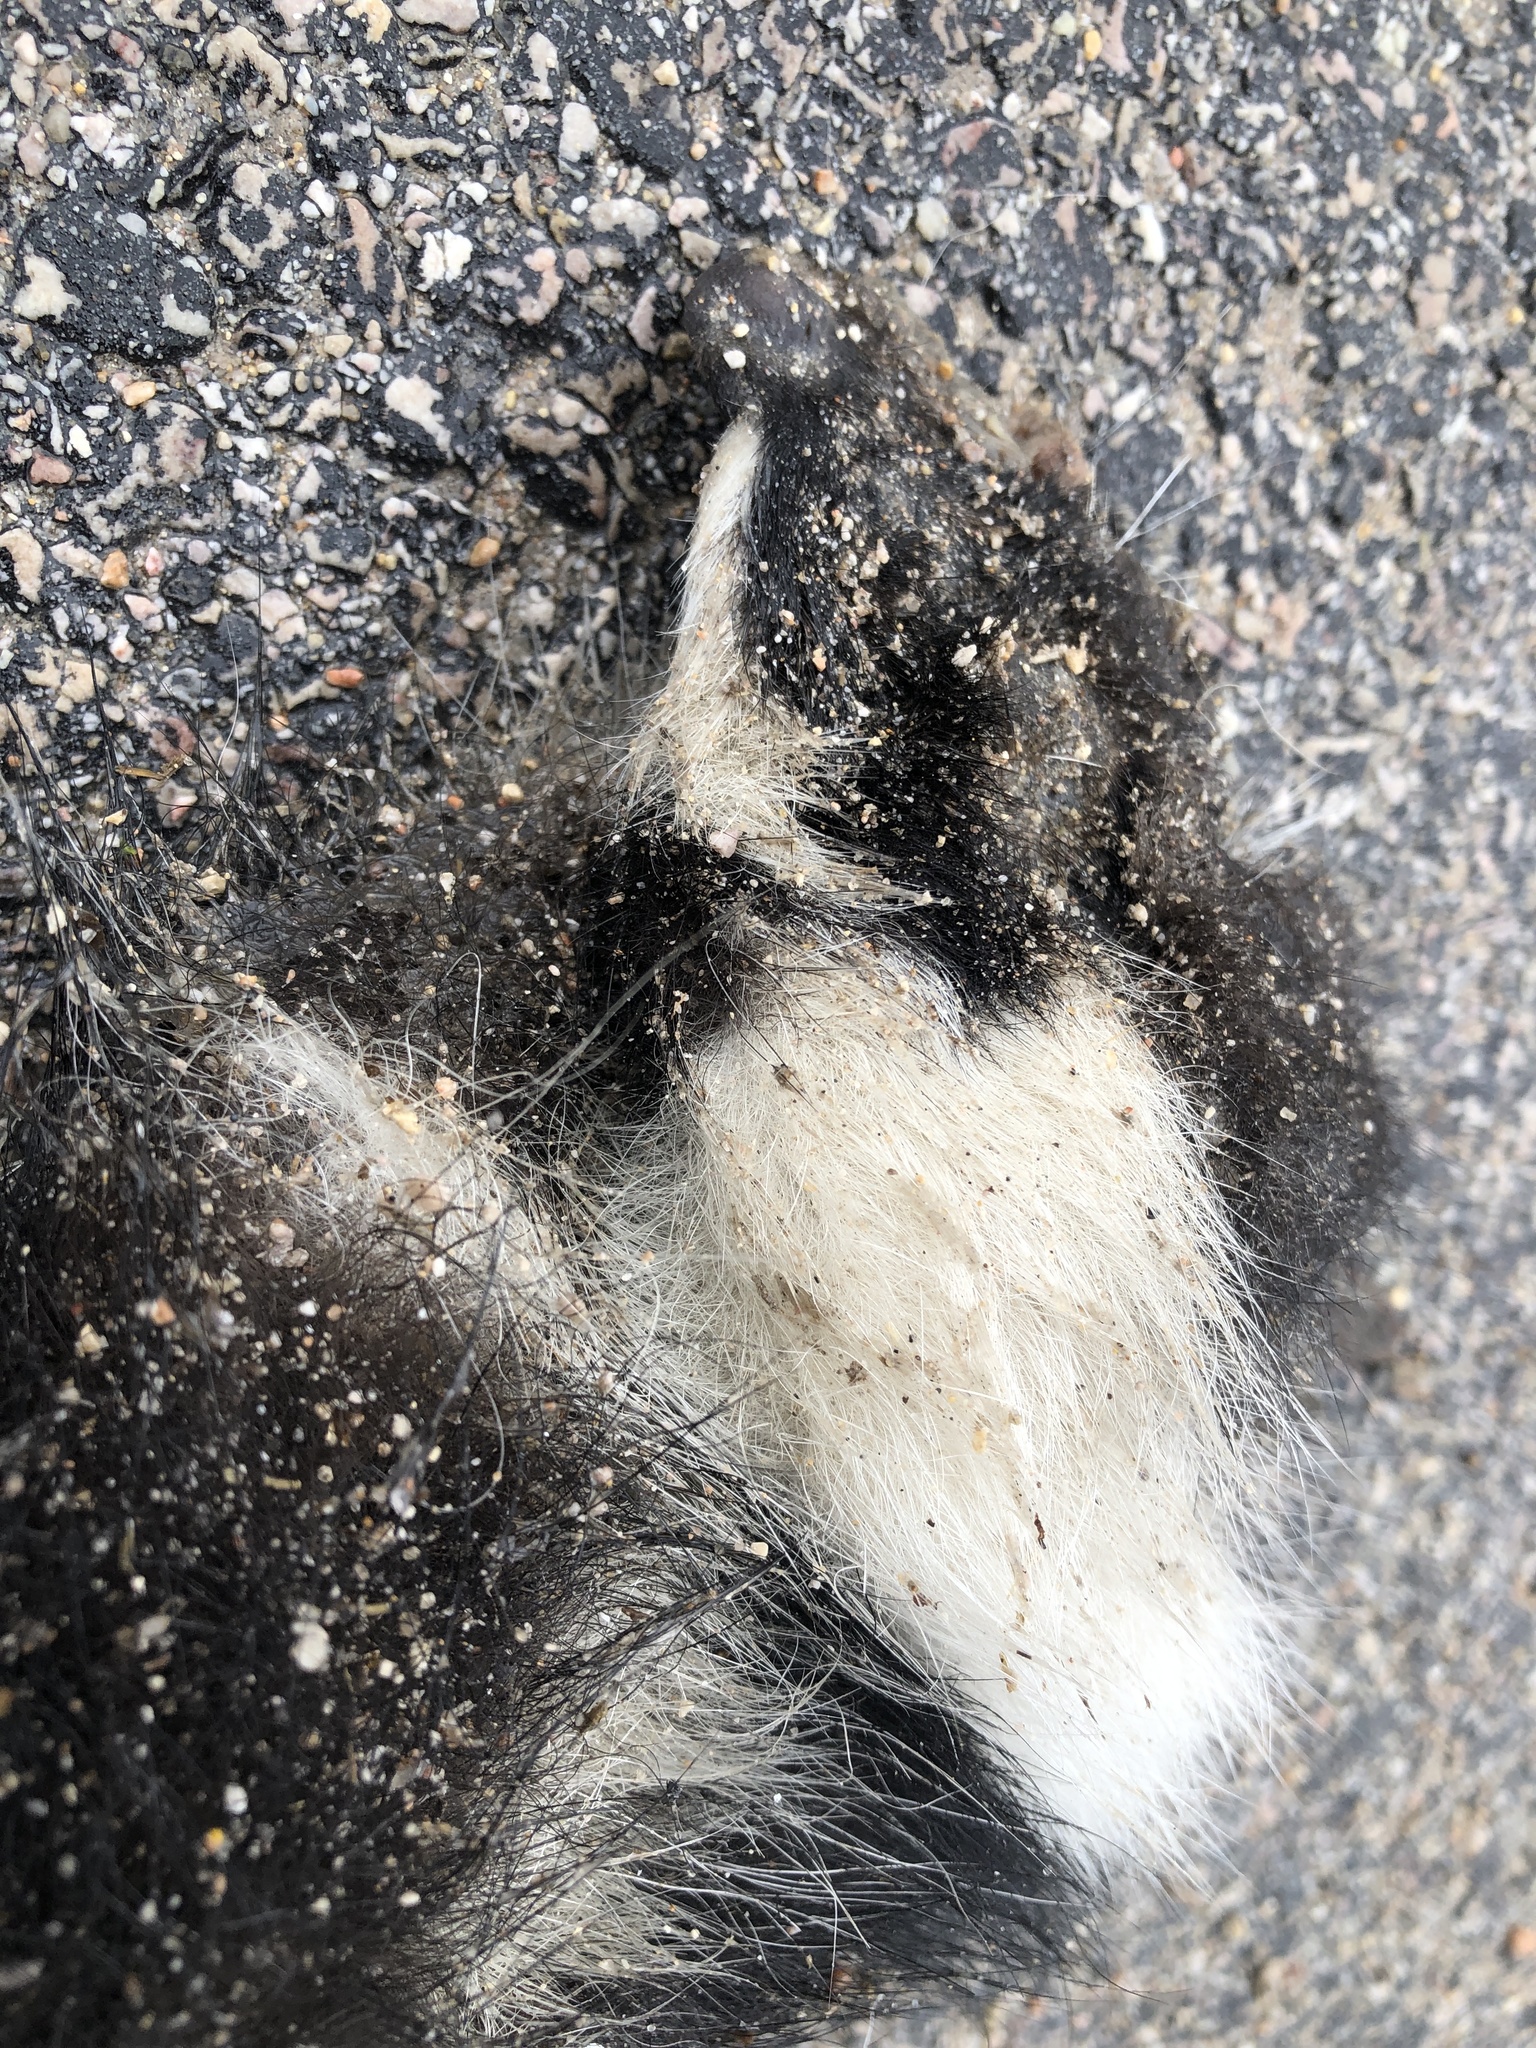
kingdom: Animalia
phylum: Chordata
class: Mammalia
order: Carnivora
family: Mephitidae
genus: Mephitis
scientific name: Mephitis mephitis
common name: Striped skunk
